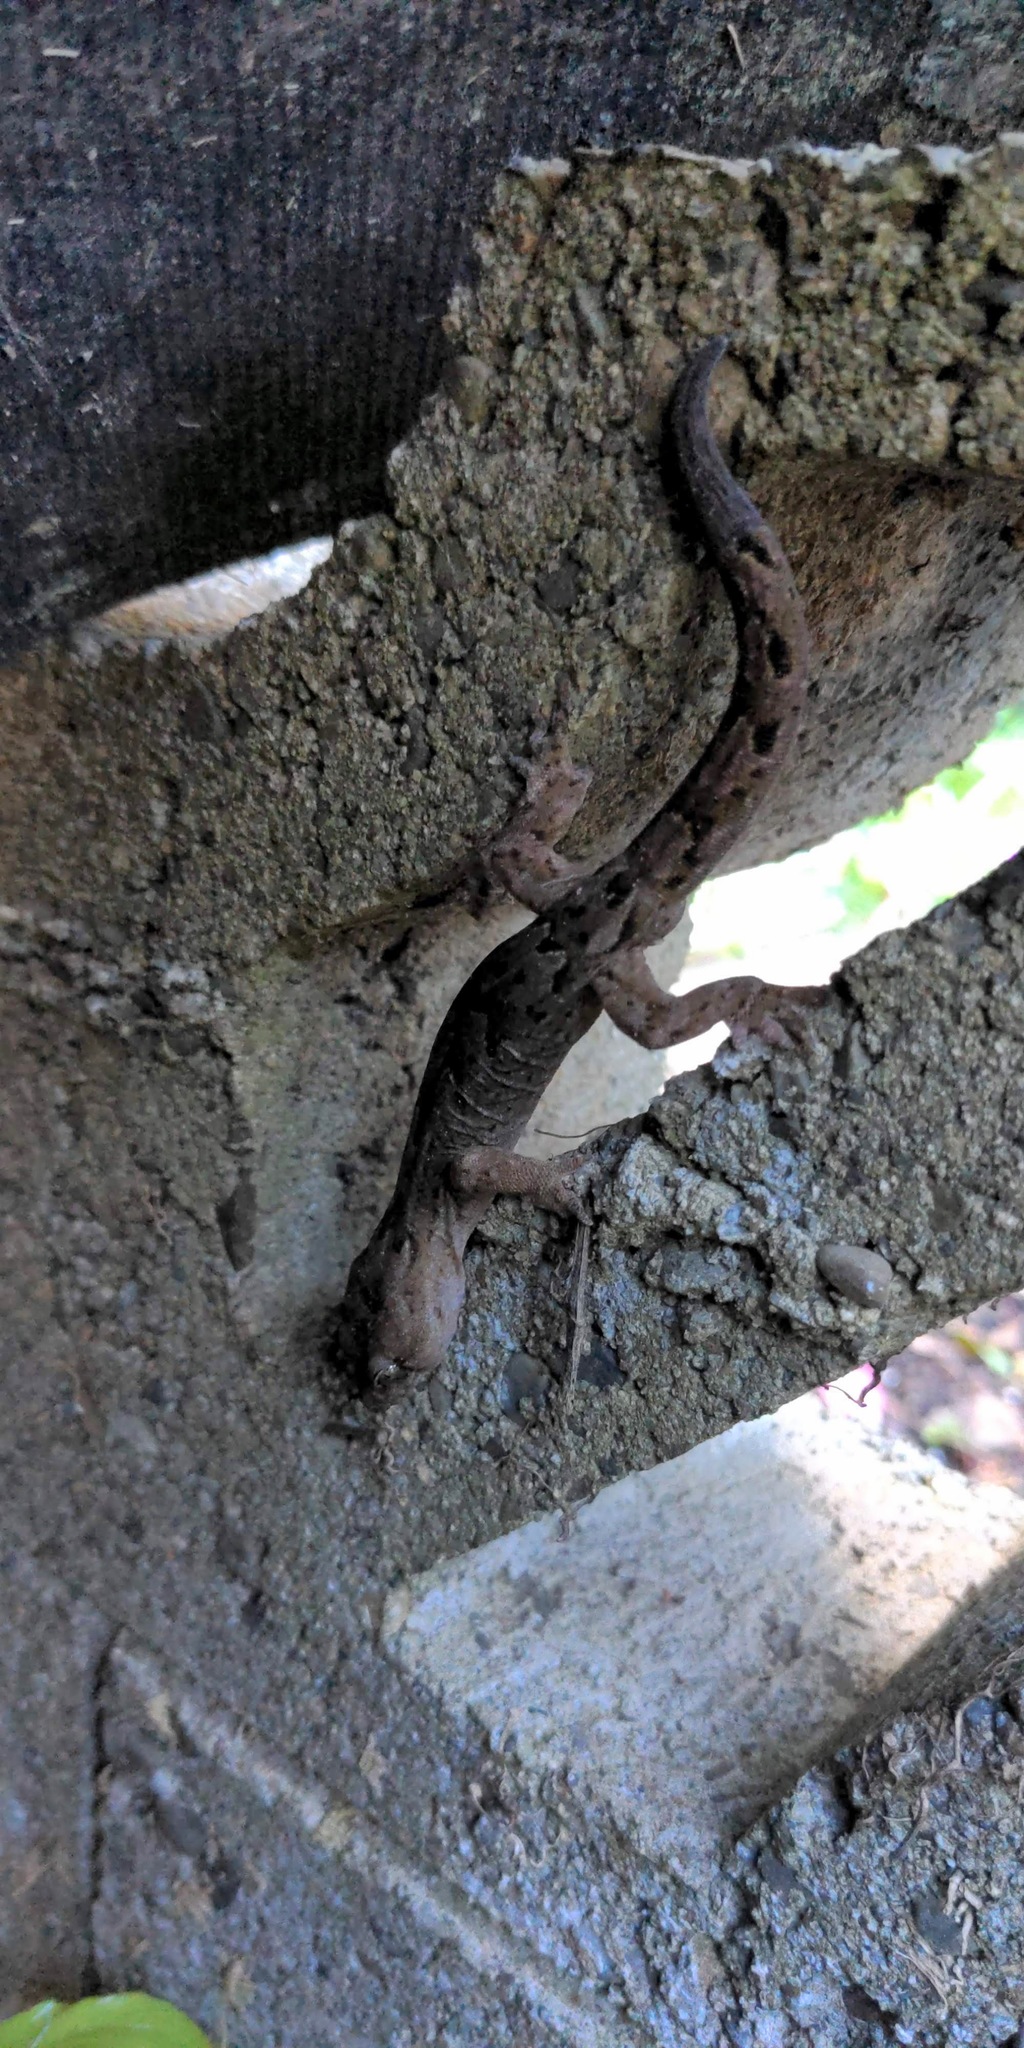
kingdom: Animalia
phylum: Chordata
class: Squamata
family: Diplodactylidae
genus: Woodworthia
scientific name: Woodworthia maculata
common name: Raukawa gecko
